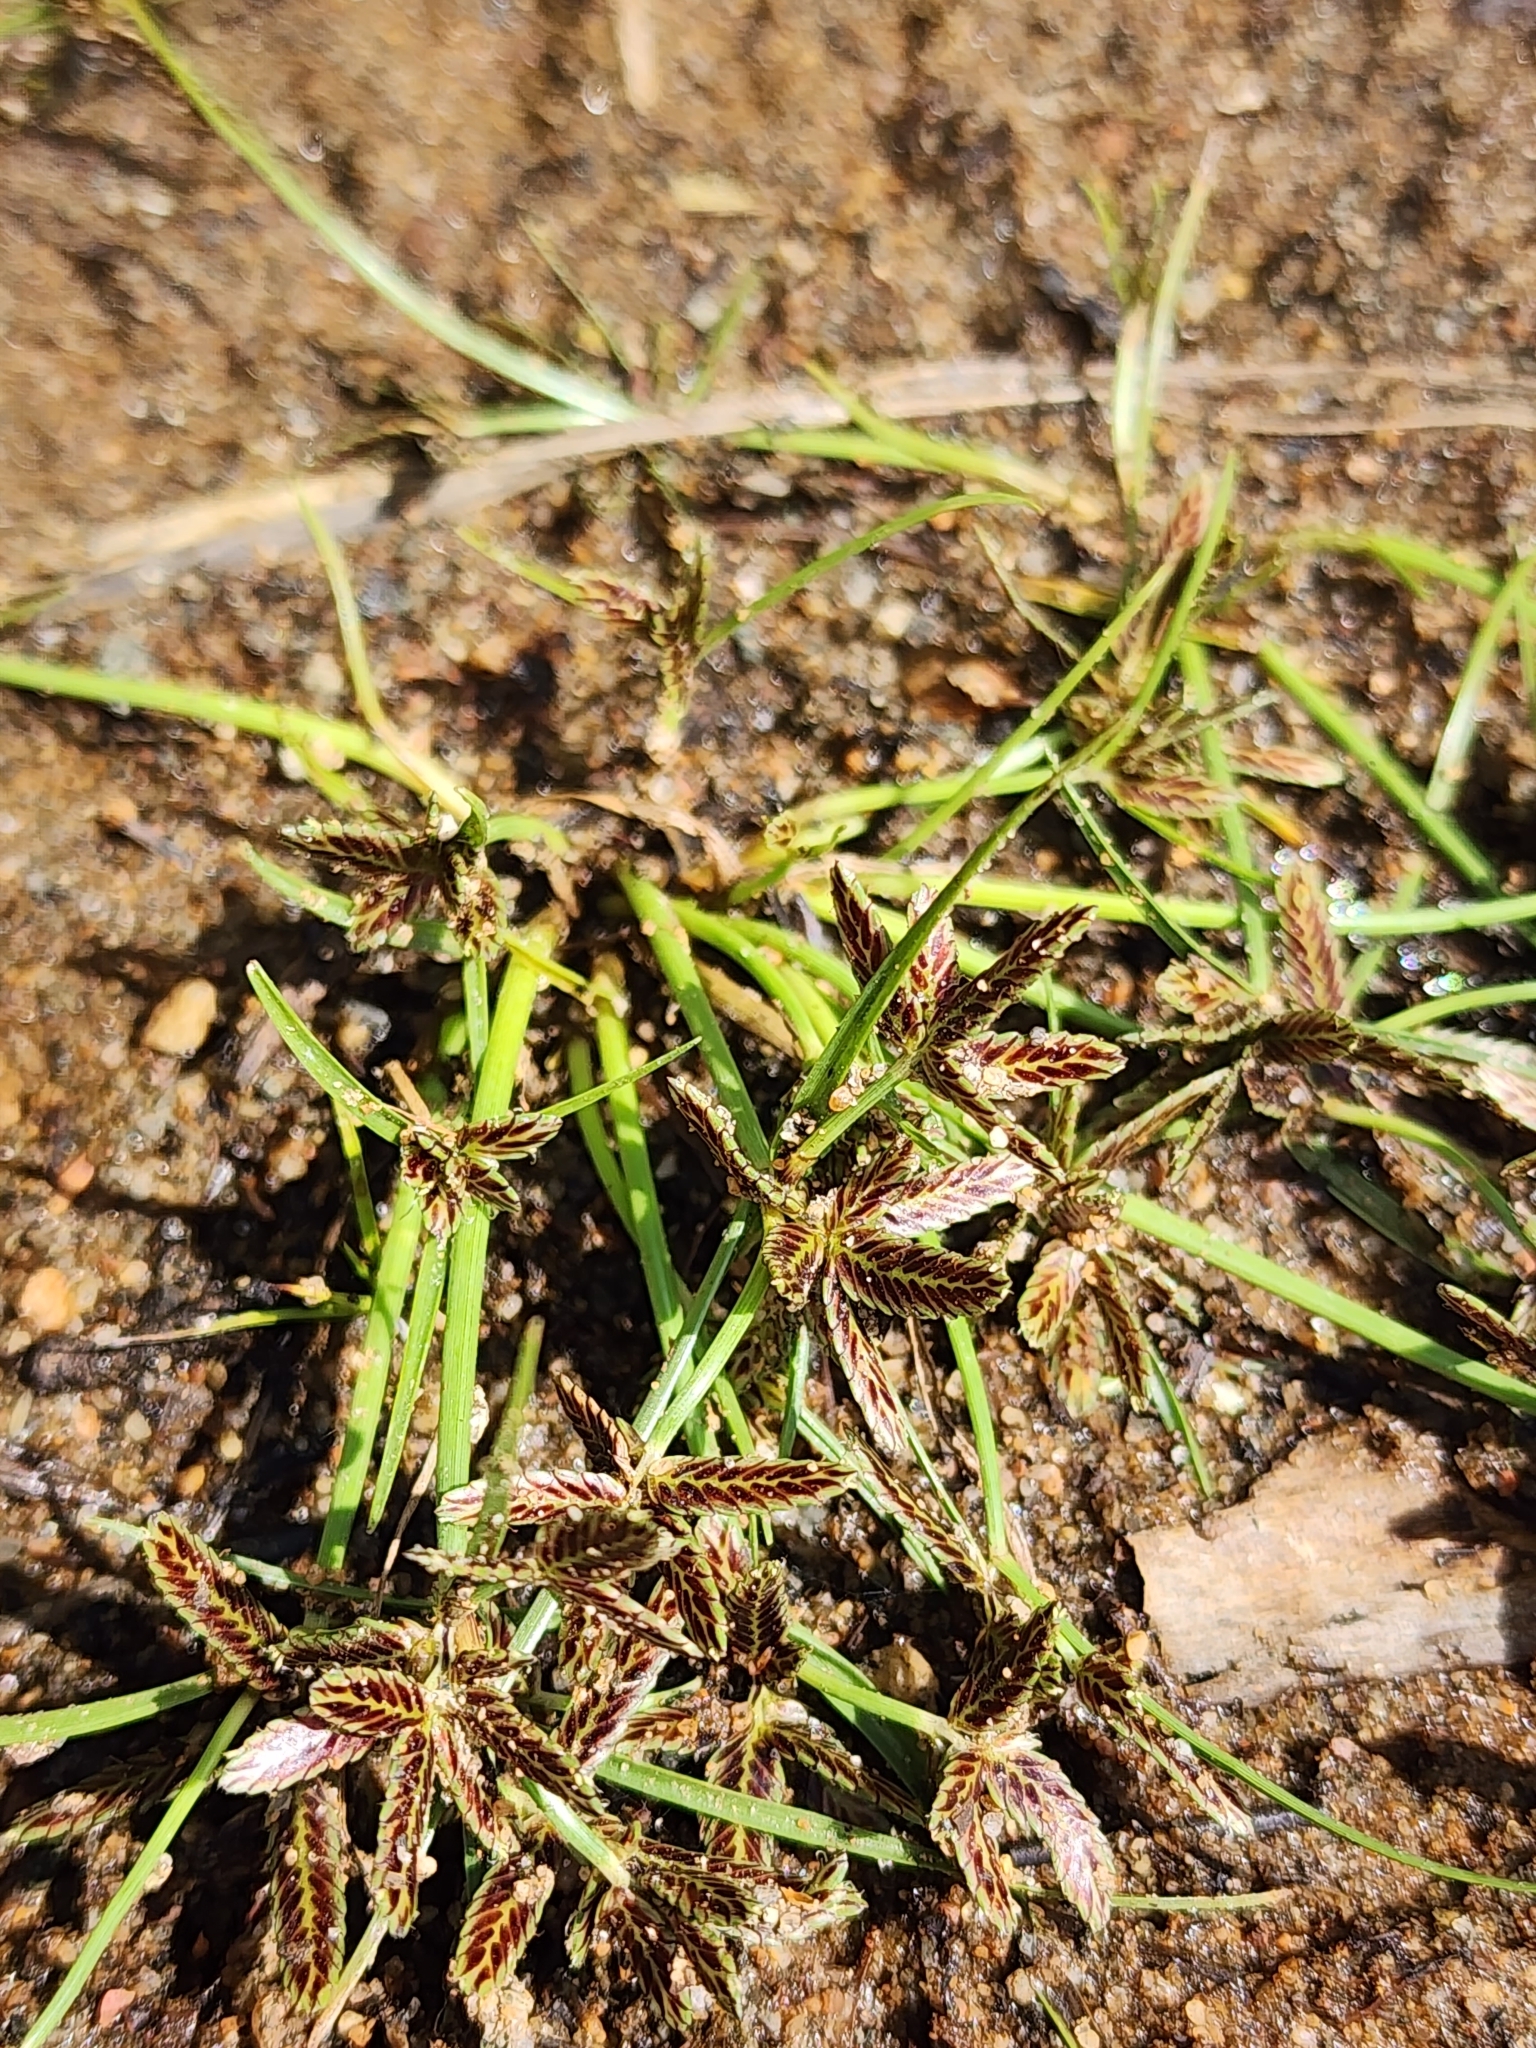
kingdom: Plantae
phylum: Tracheophyta
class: Liliopsida
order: Poales
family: Cyperaceae
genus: Cyperus
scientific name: Cyperus bipartitus
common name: Brook flatsedge
